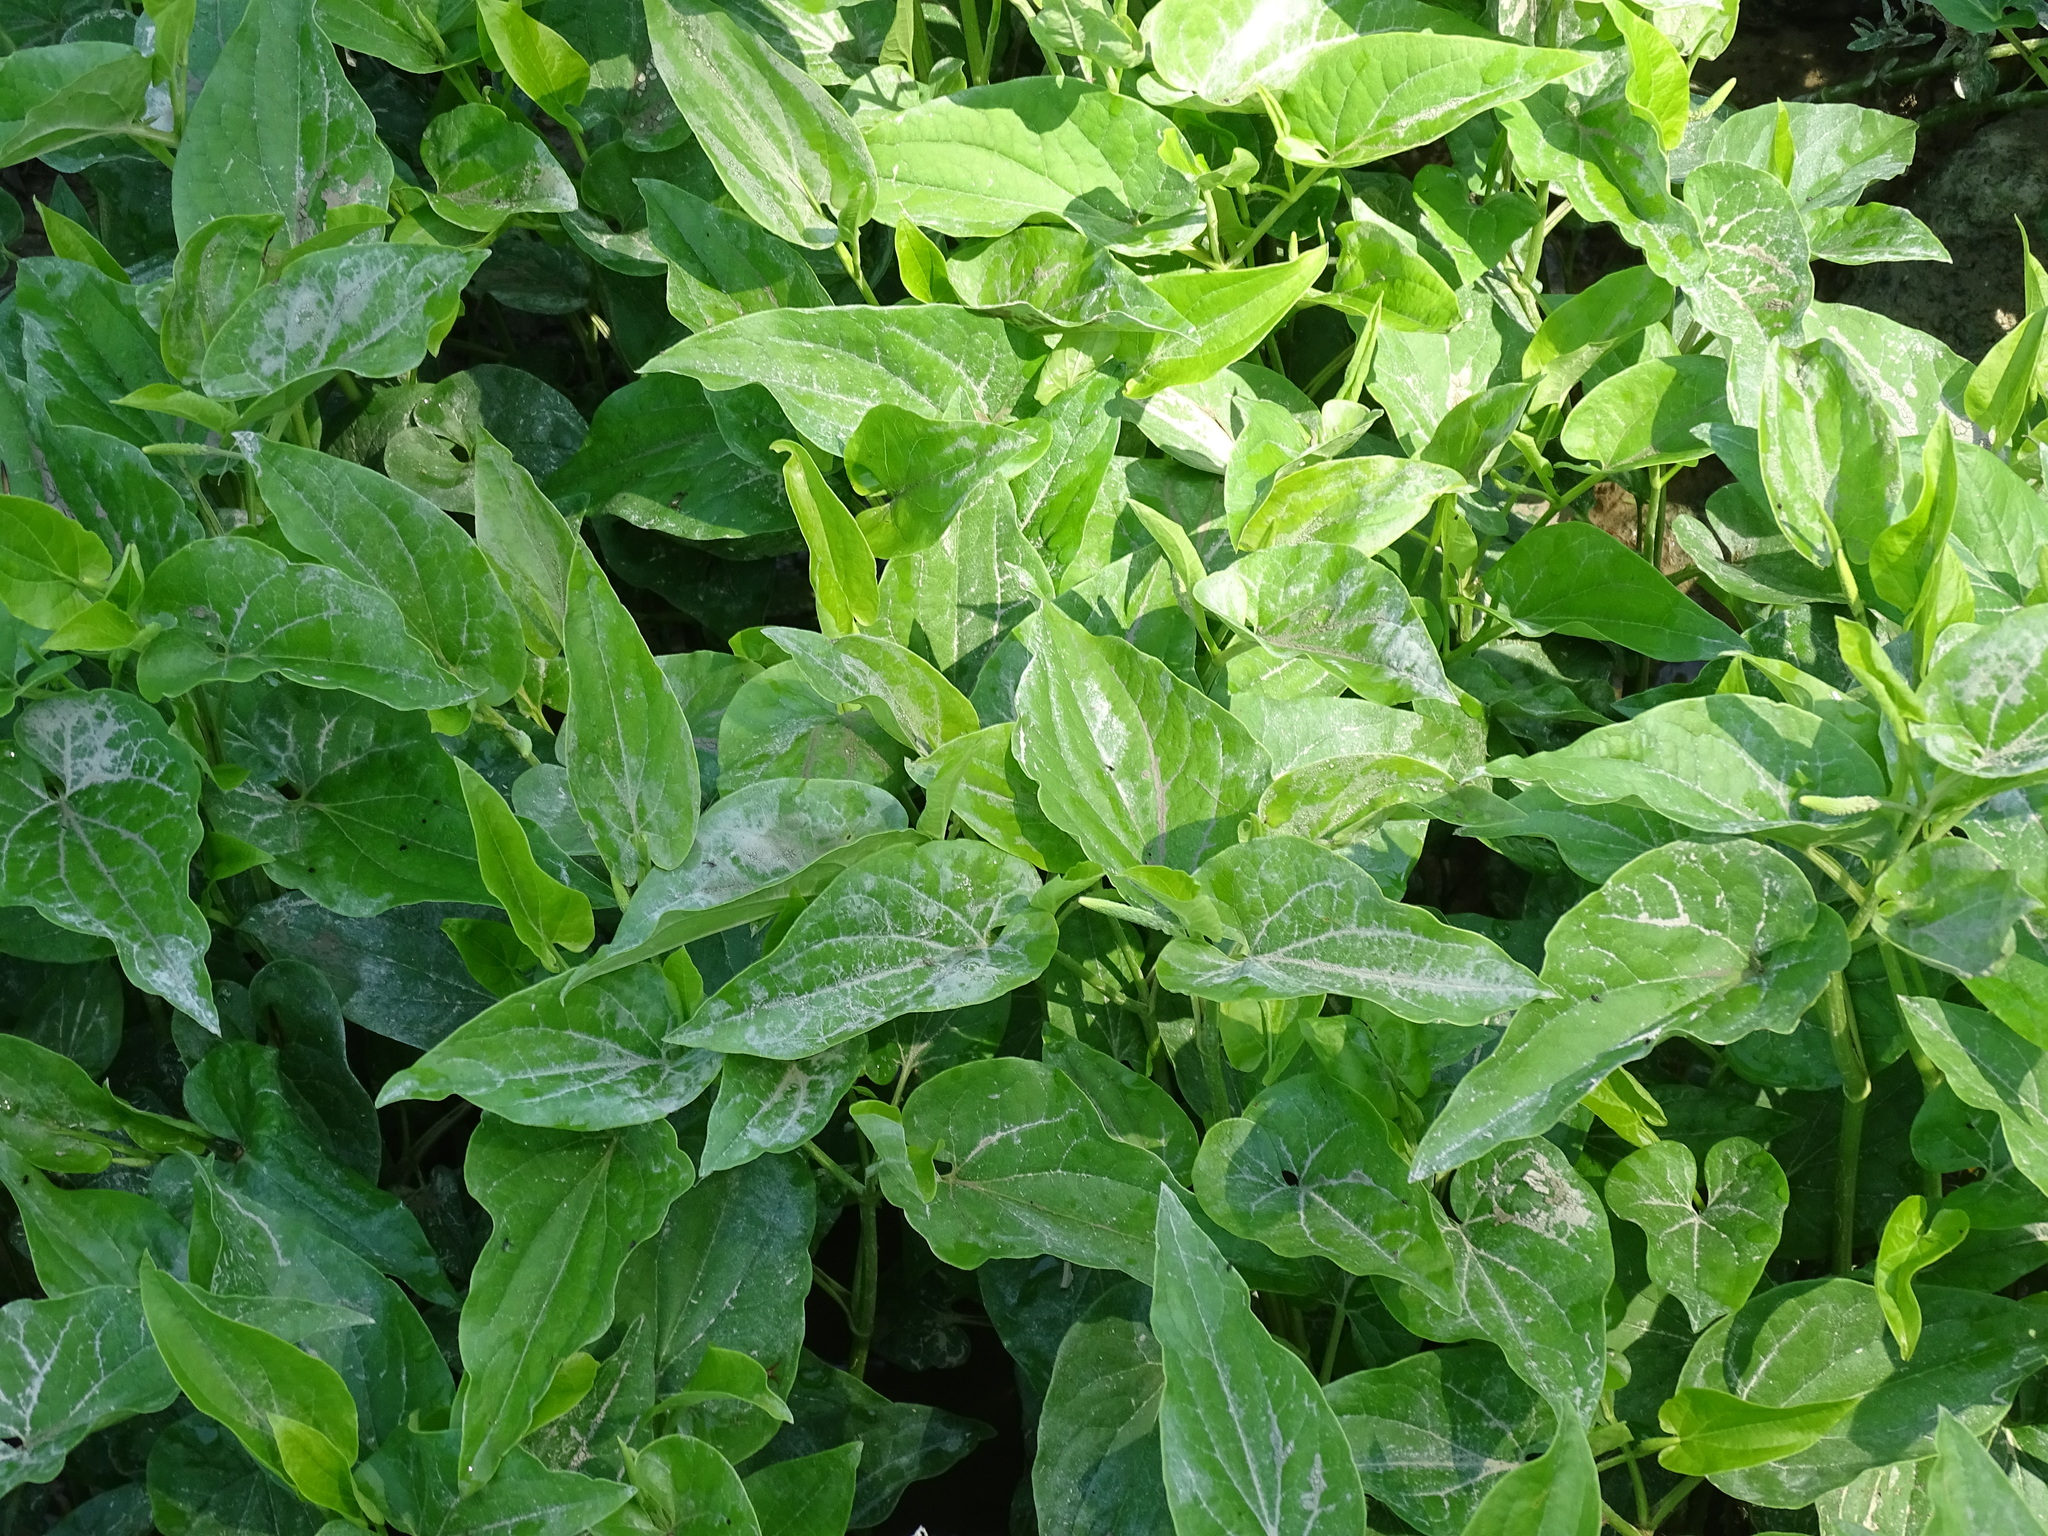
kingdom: Plantae
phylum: Tracheophyta
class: Magnoliopsida
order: Piperales
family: Saururaceae
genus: Saururus
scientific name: Saururus cernuus
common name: Lizard's-tail
